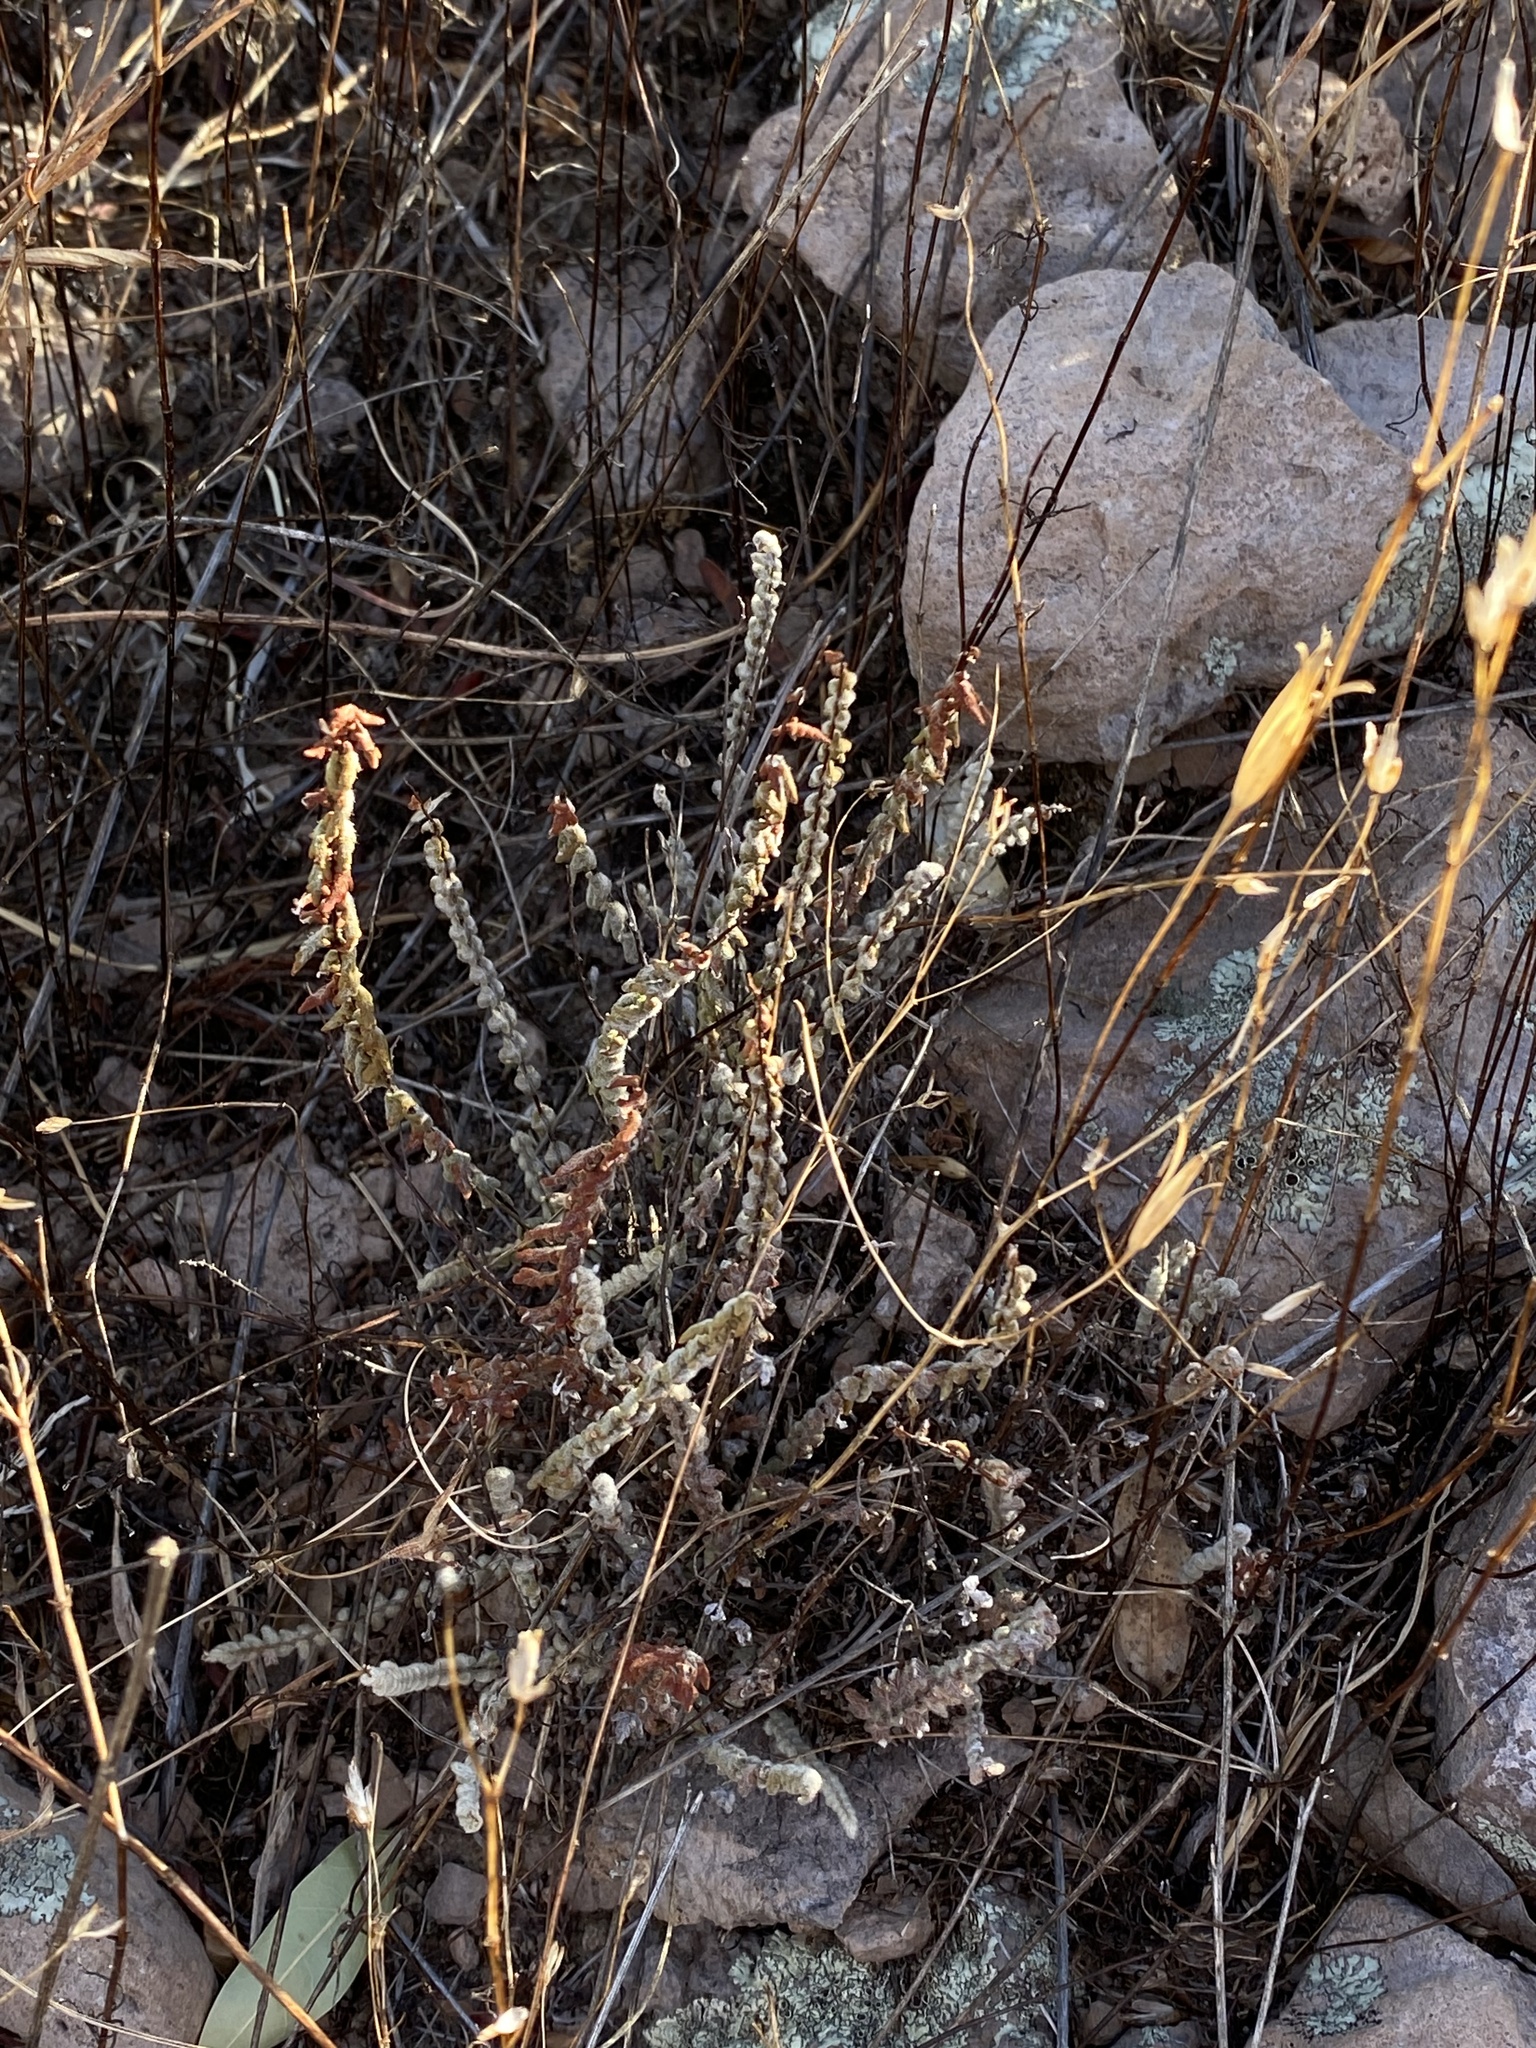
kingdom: Plantae
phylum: Tracheophyta
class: Polypodiopsida
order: Polypodiales
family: Pteridaceae
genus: Myriopteris
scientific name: Myriopteris aurea
